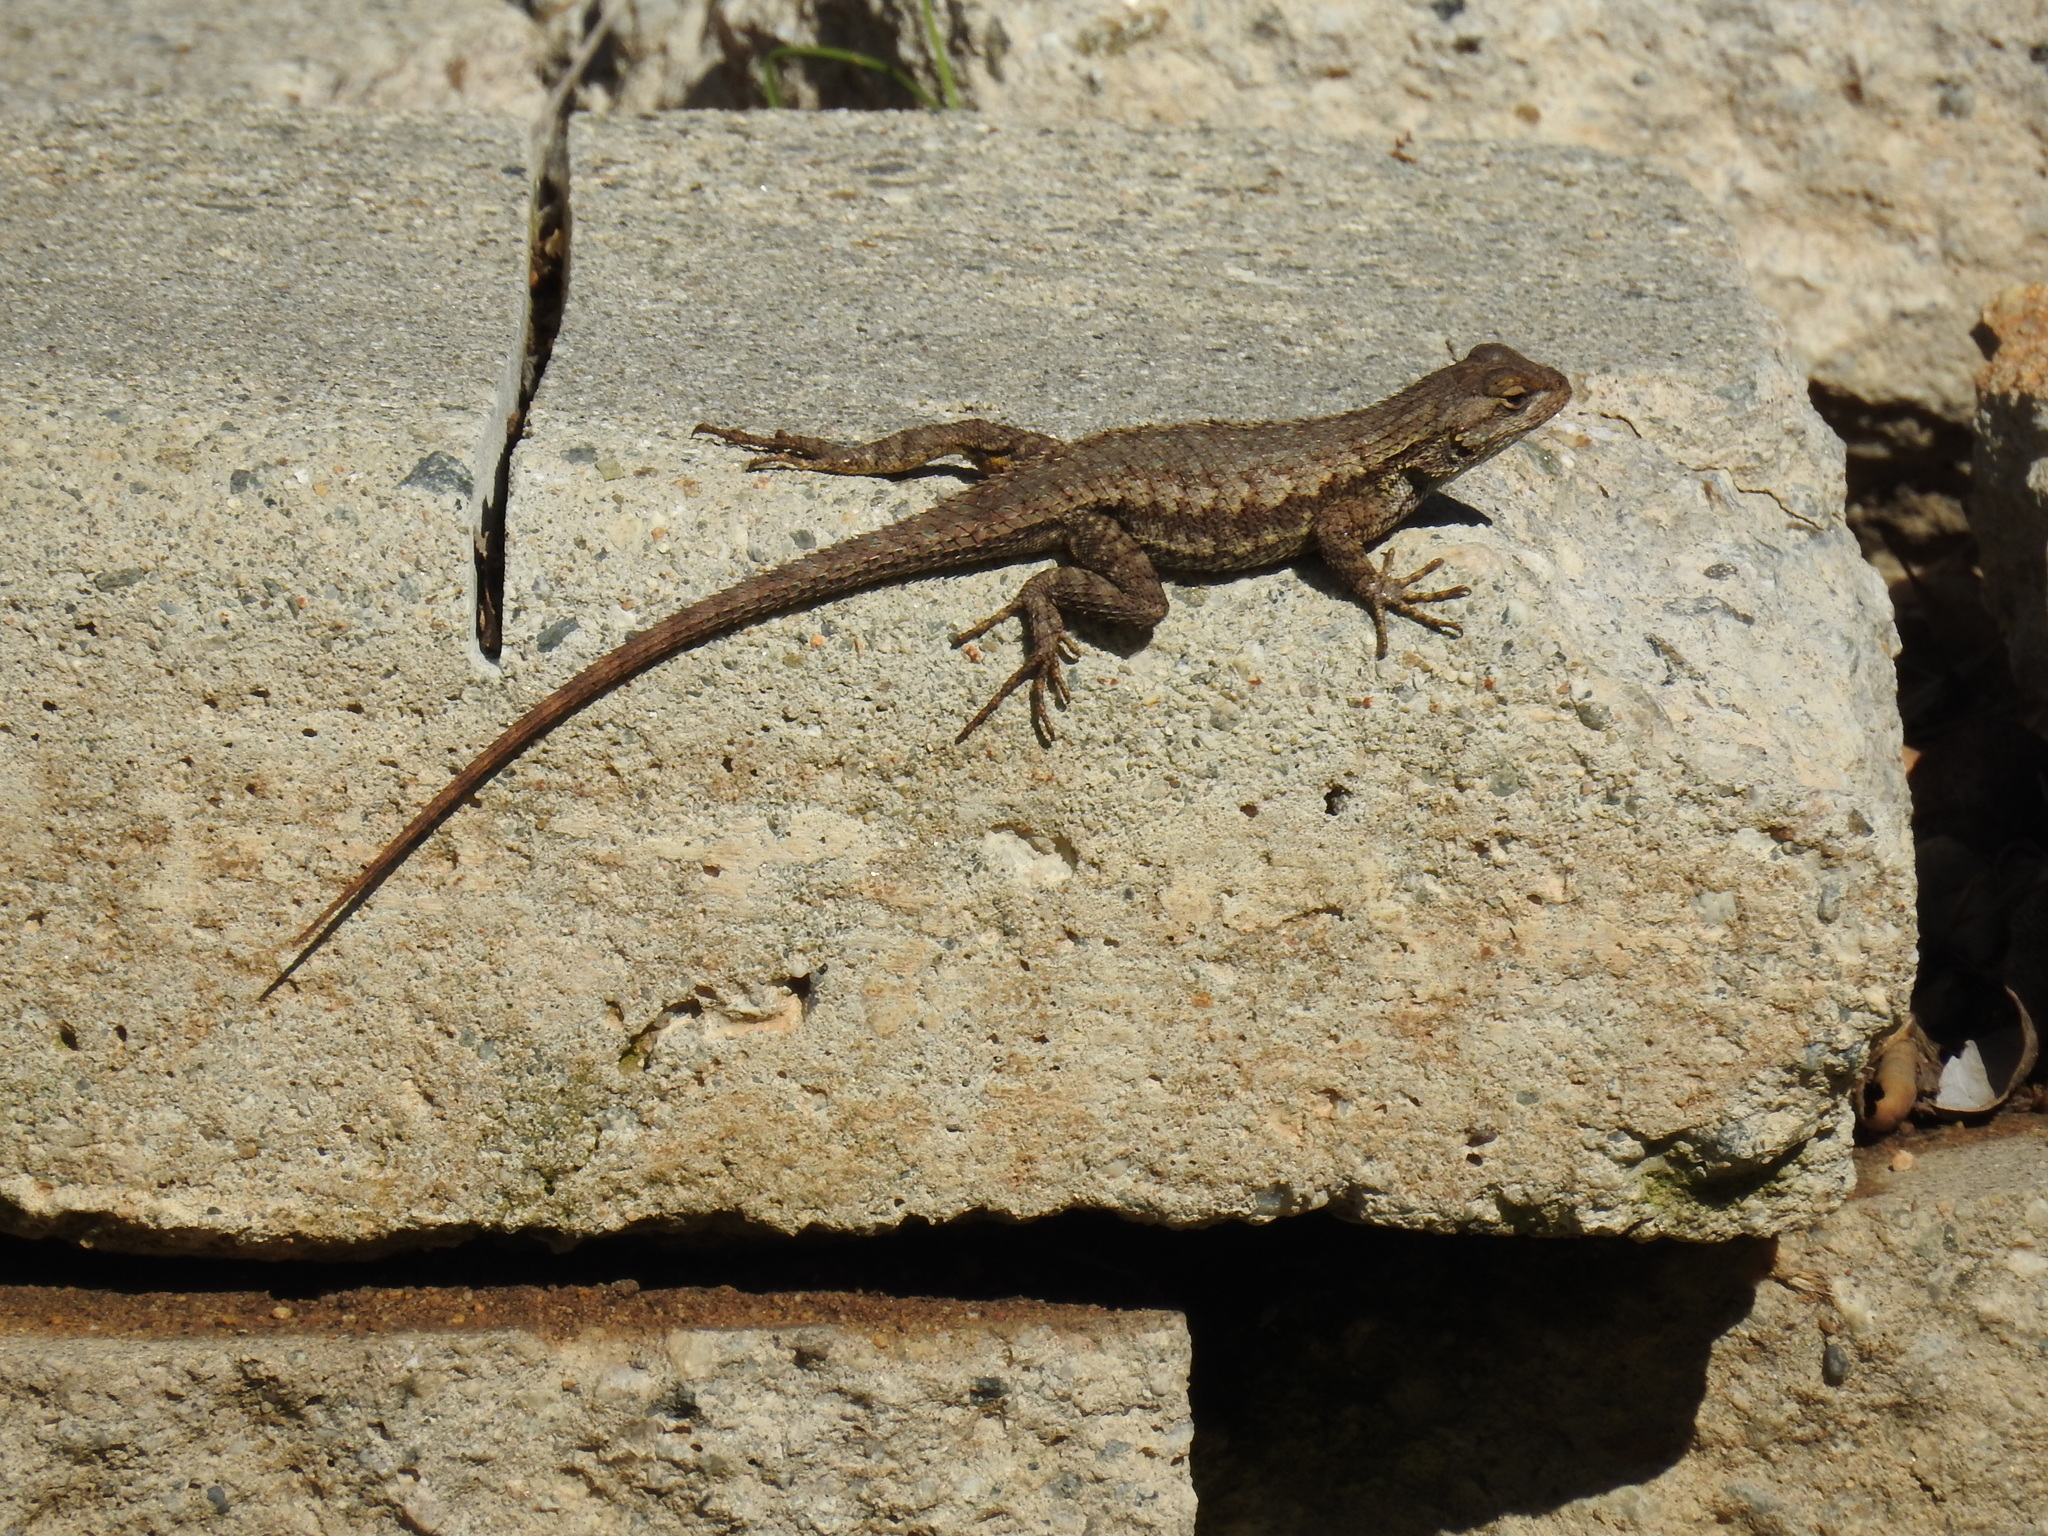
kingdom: Animalia
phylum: Chordata
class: Squamata
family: Phrynosomatidae
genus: Sceloporus
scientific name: Sceloporus occidentalis
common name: Western fence lizard
